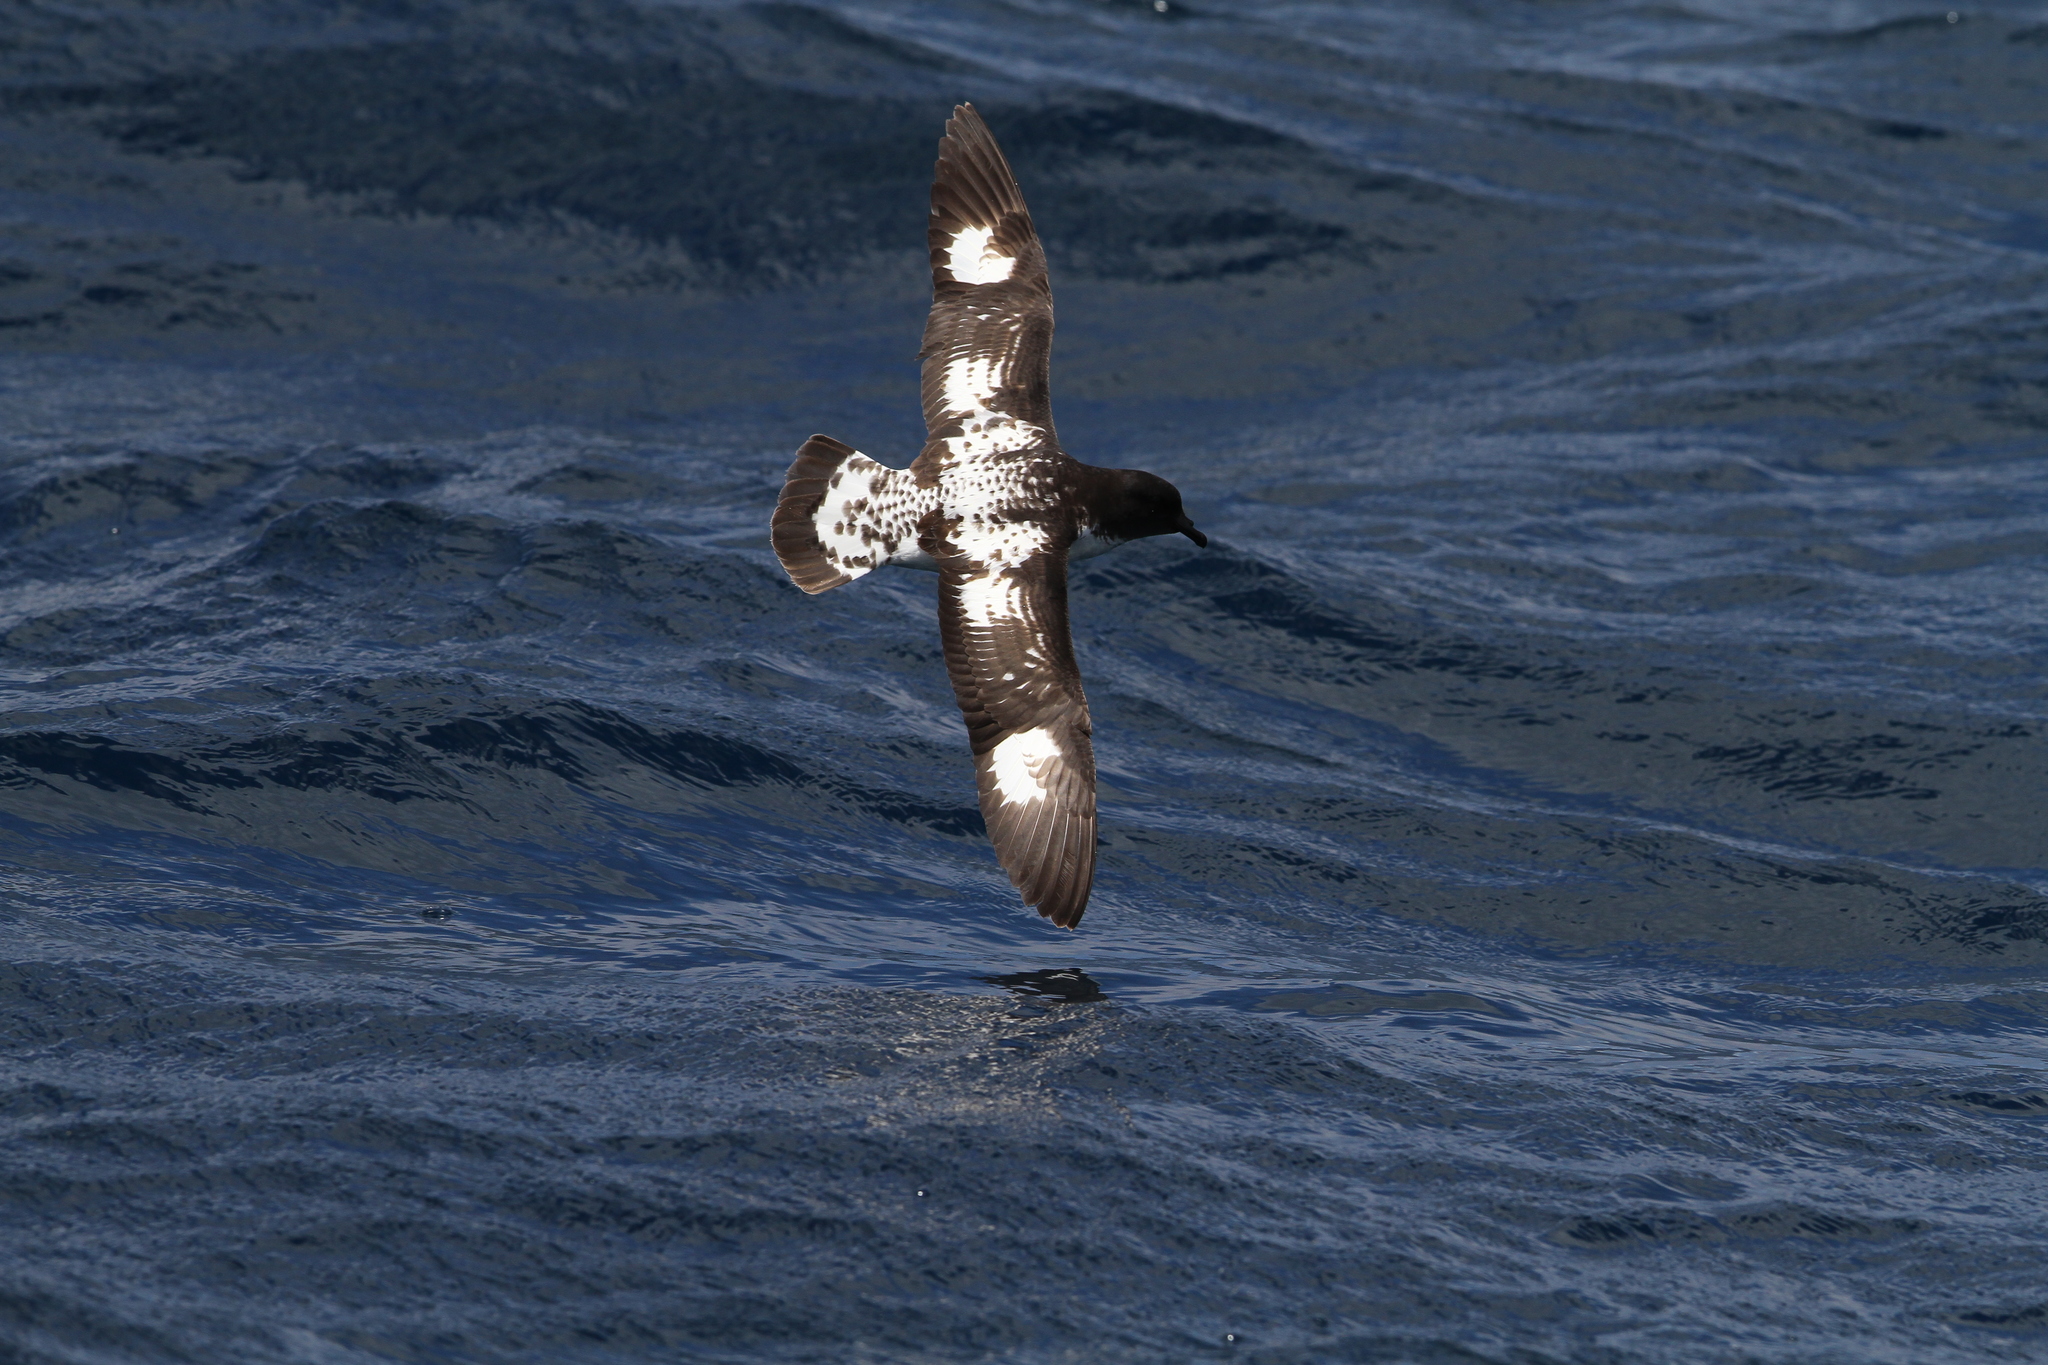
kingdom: Animalia
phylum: Chordata
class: Aves
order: Procellariiformes
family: Procellariidae
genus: Daption
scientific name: Daption capense
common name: Cape petrel
